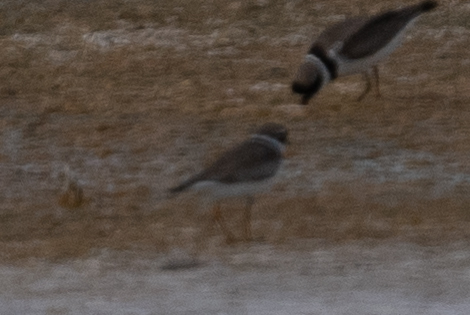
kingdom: Animalia
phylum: Chordata
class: Aves
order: Charadriiformes
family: Charadriidae
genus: Charadrius
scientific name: Charadrius semipalmatus
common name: Semipalmated plover
